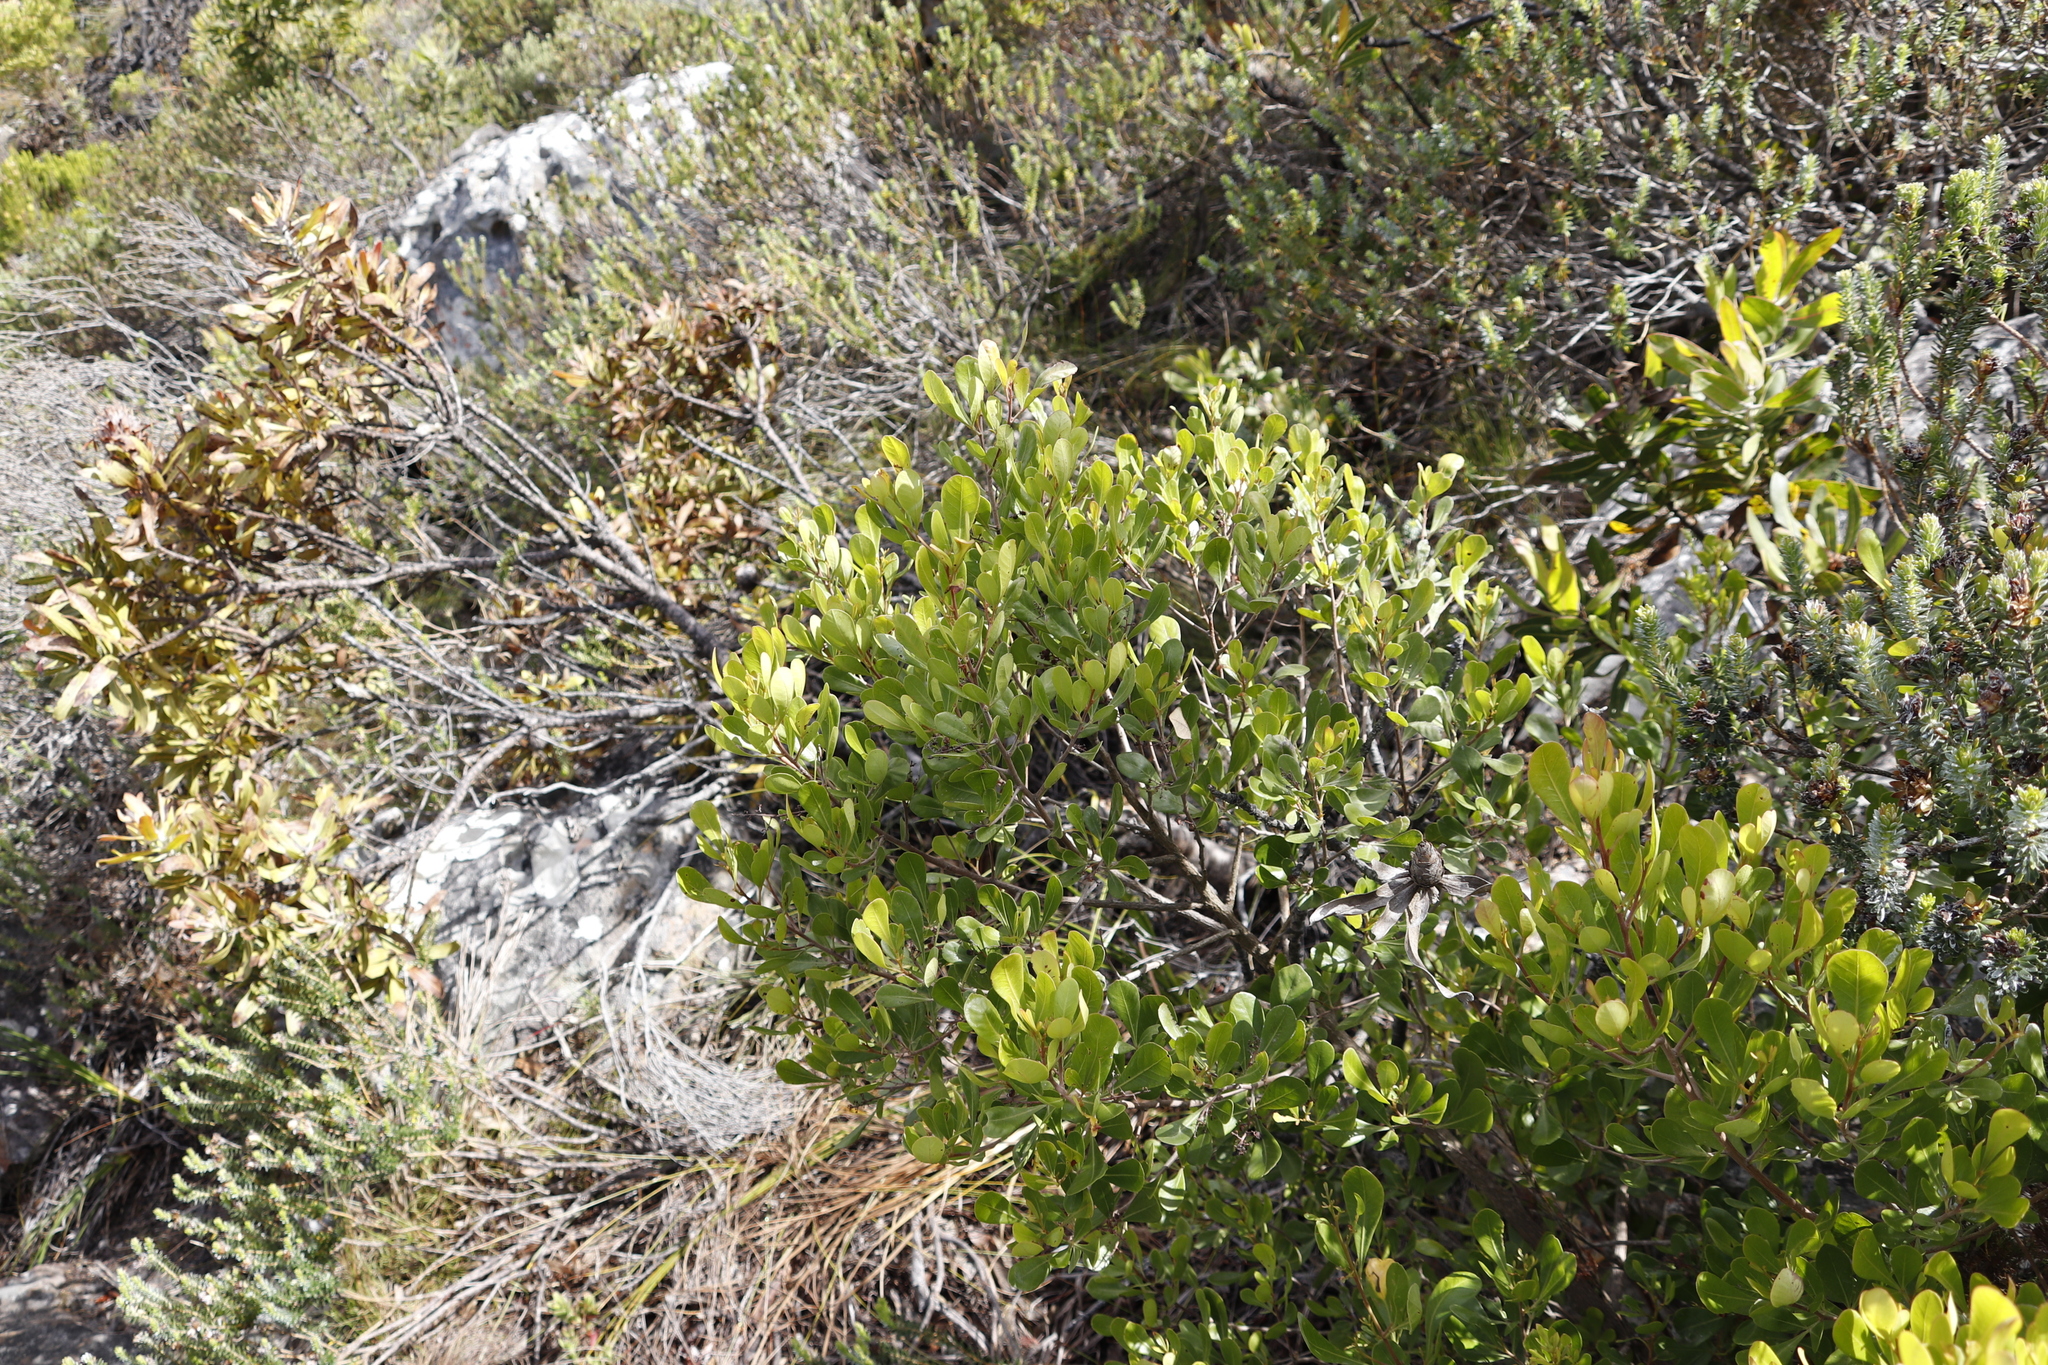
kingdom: Plantae
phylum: Tracheophyta
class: Magnoliopsida
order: Sapindales
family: Anacardiaceae
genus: Searsia
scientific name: Searsia lucida
